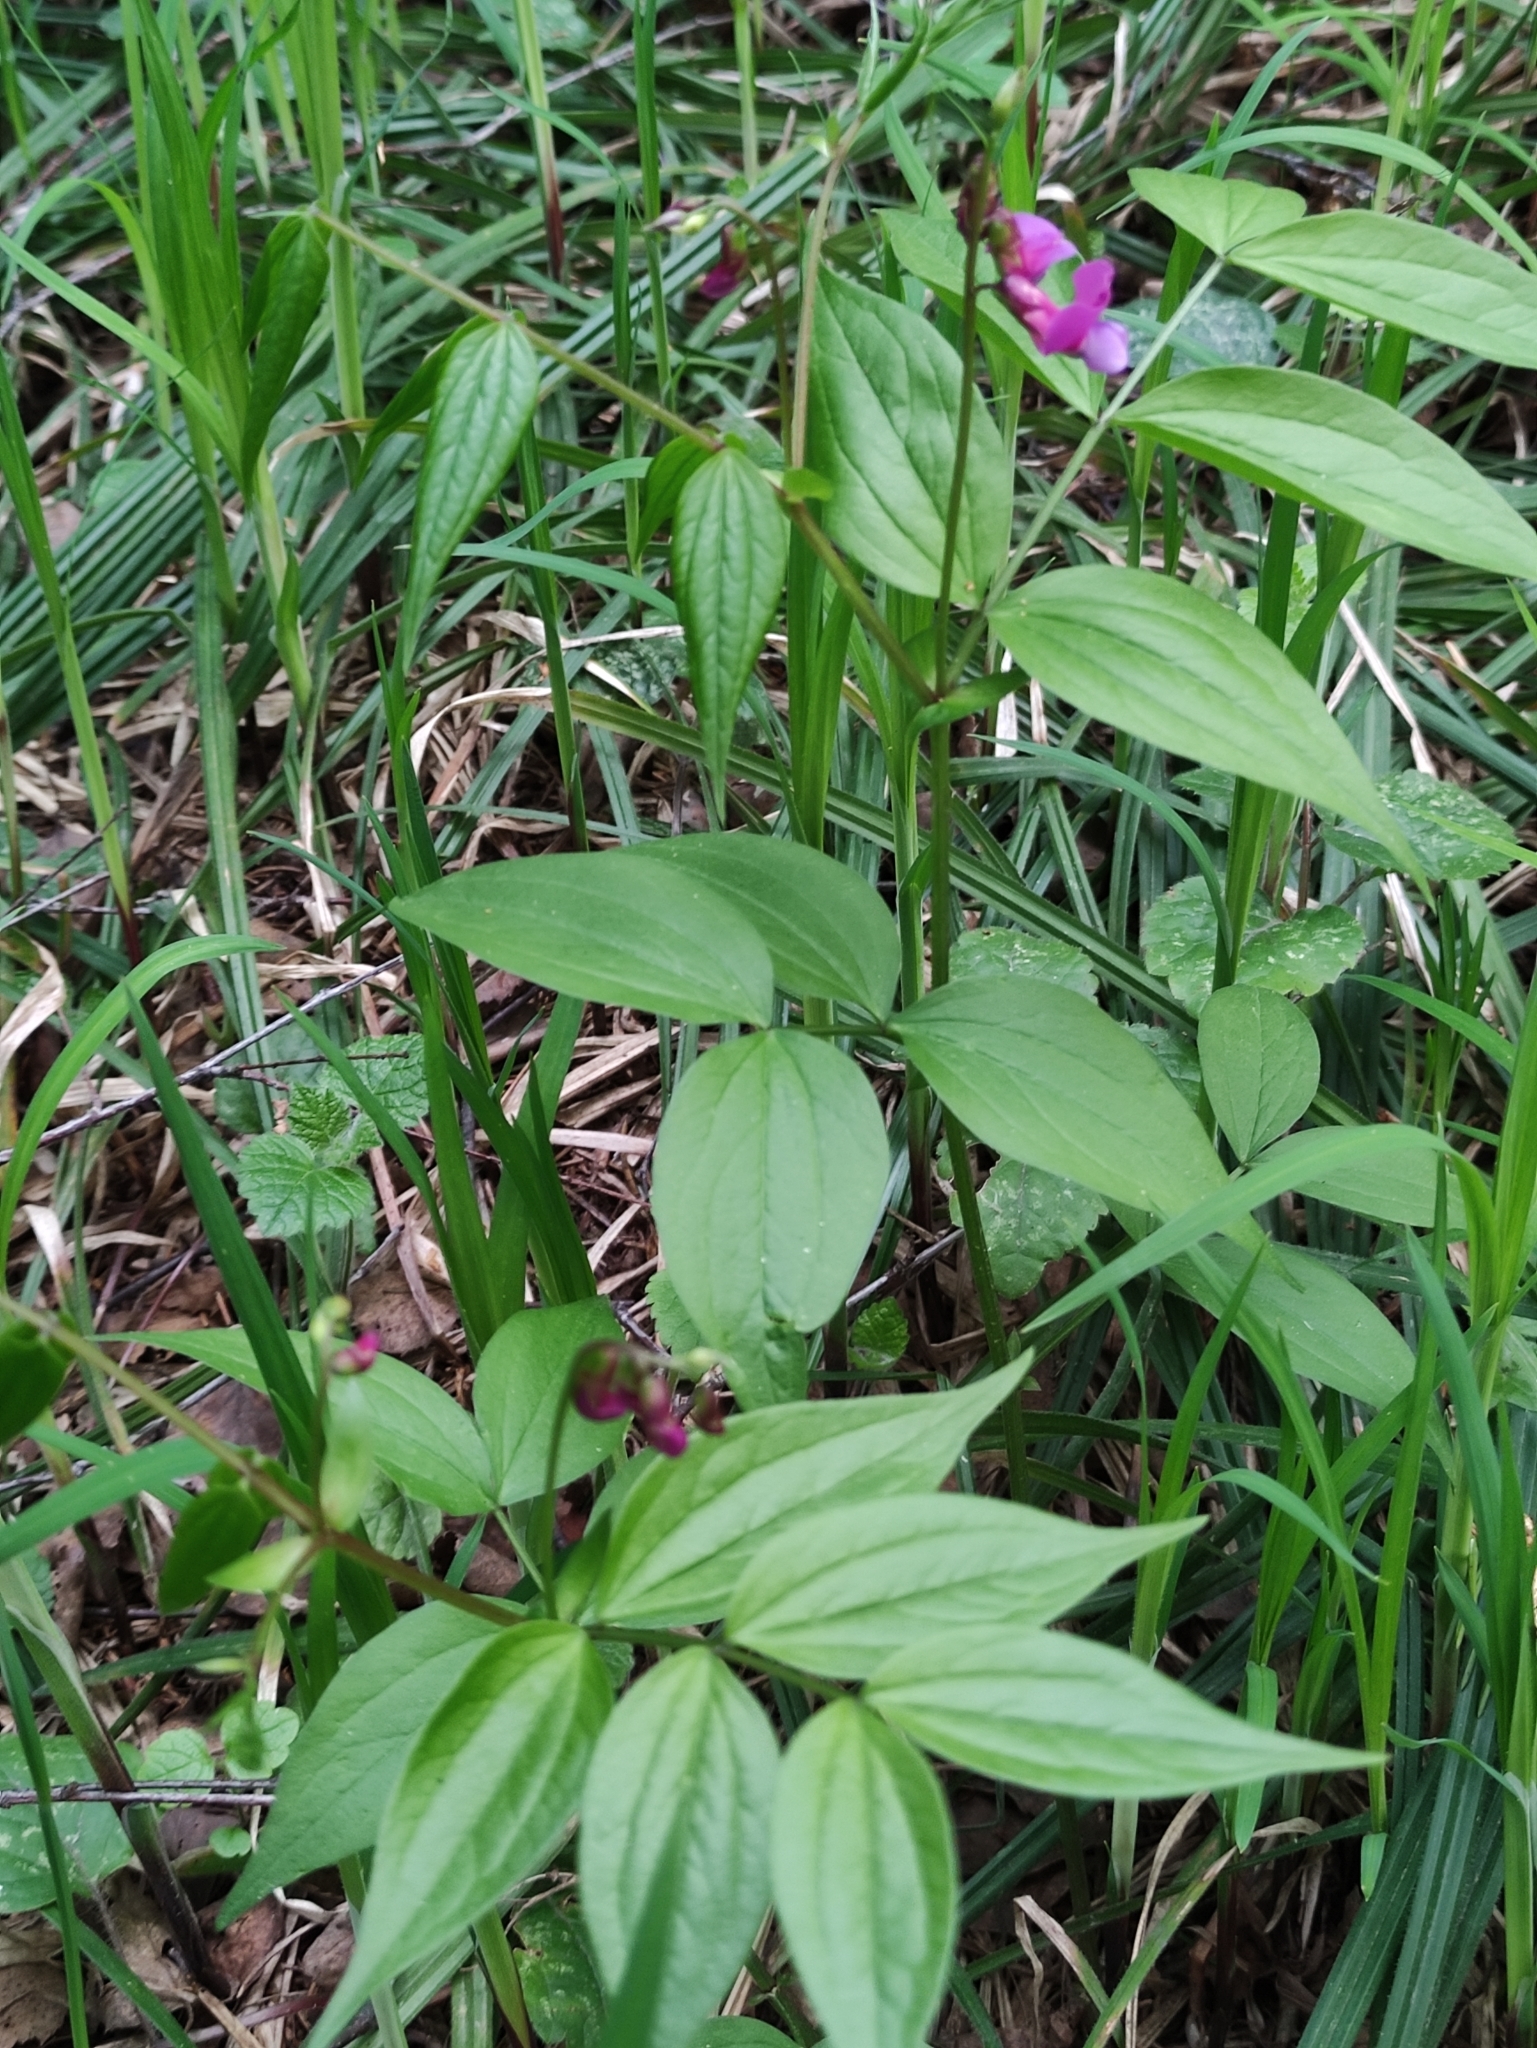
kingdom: Plantae
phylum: Tracheophyta
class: Magnoliopsida
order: Fabales
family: Fabaceae
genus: Lathyrus
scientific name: Lathyrus vernus
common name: Spring pea
